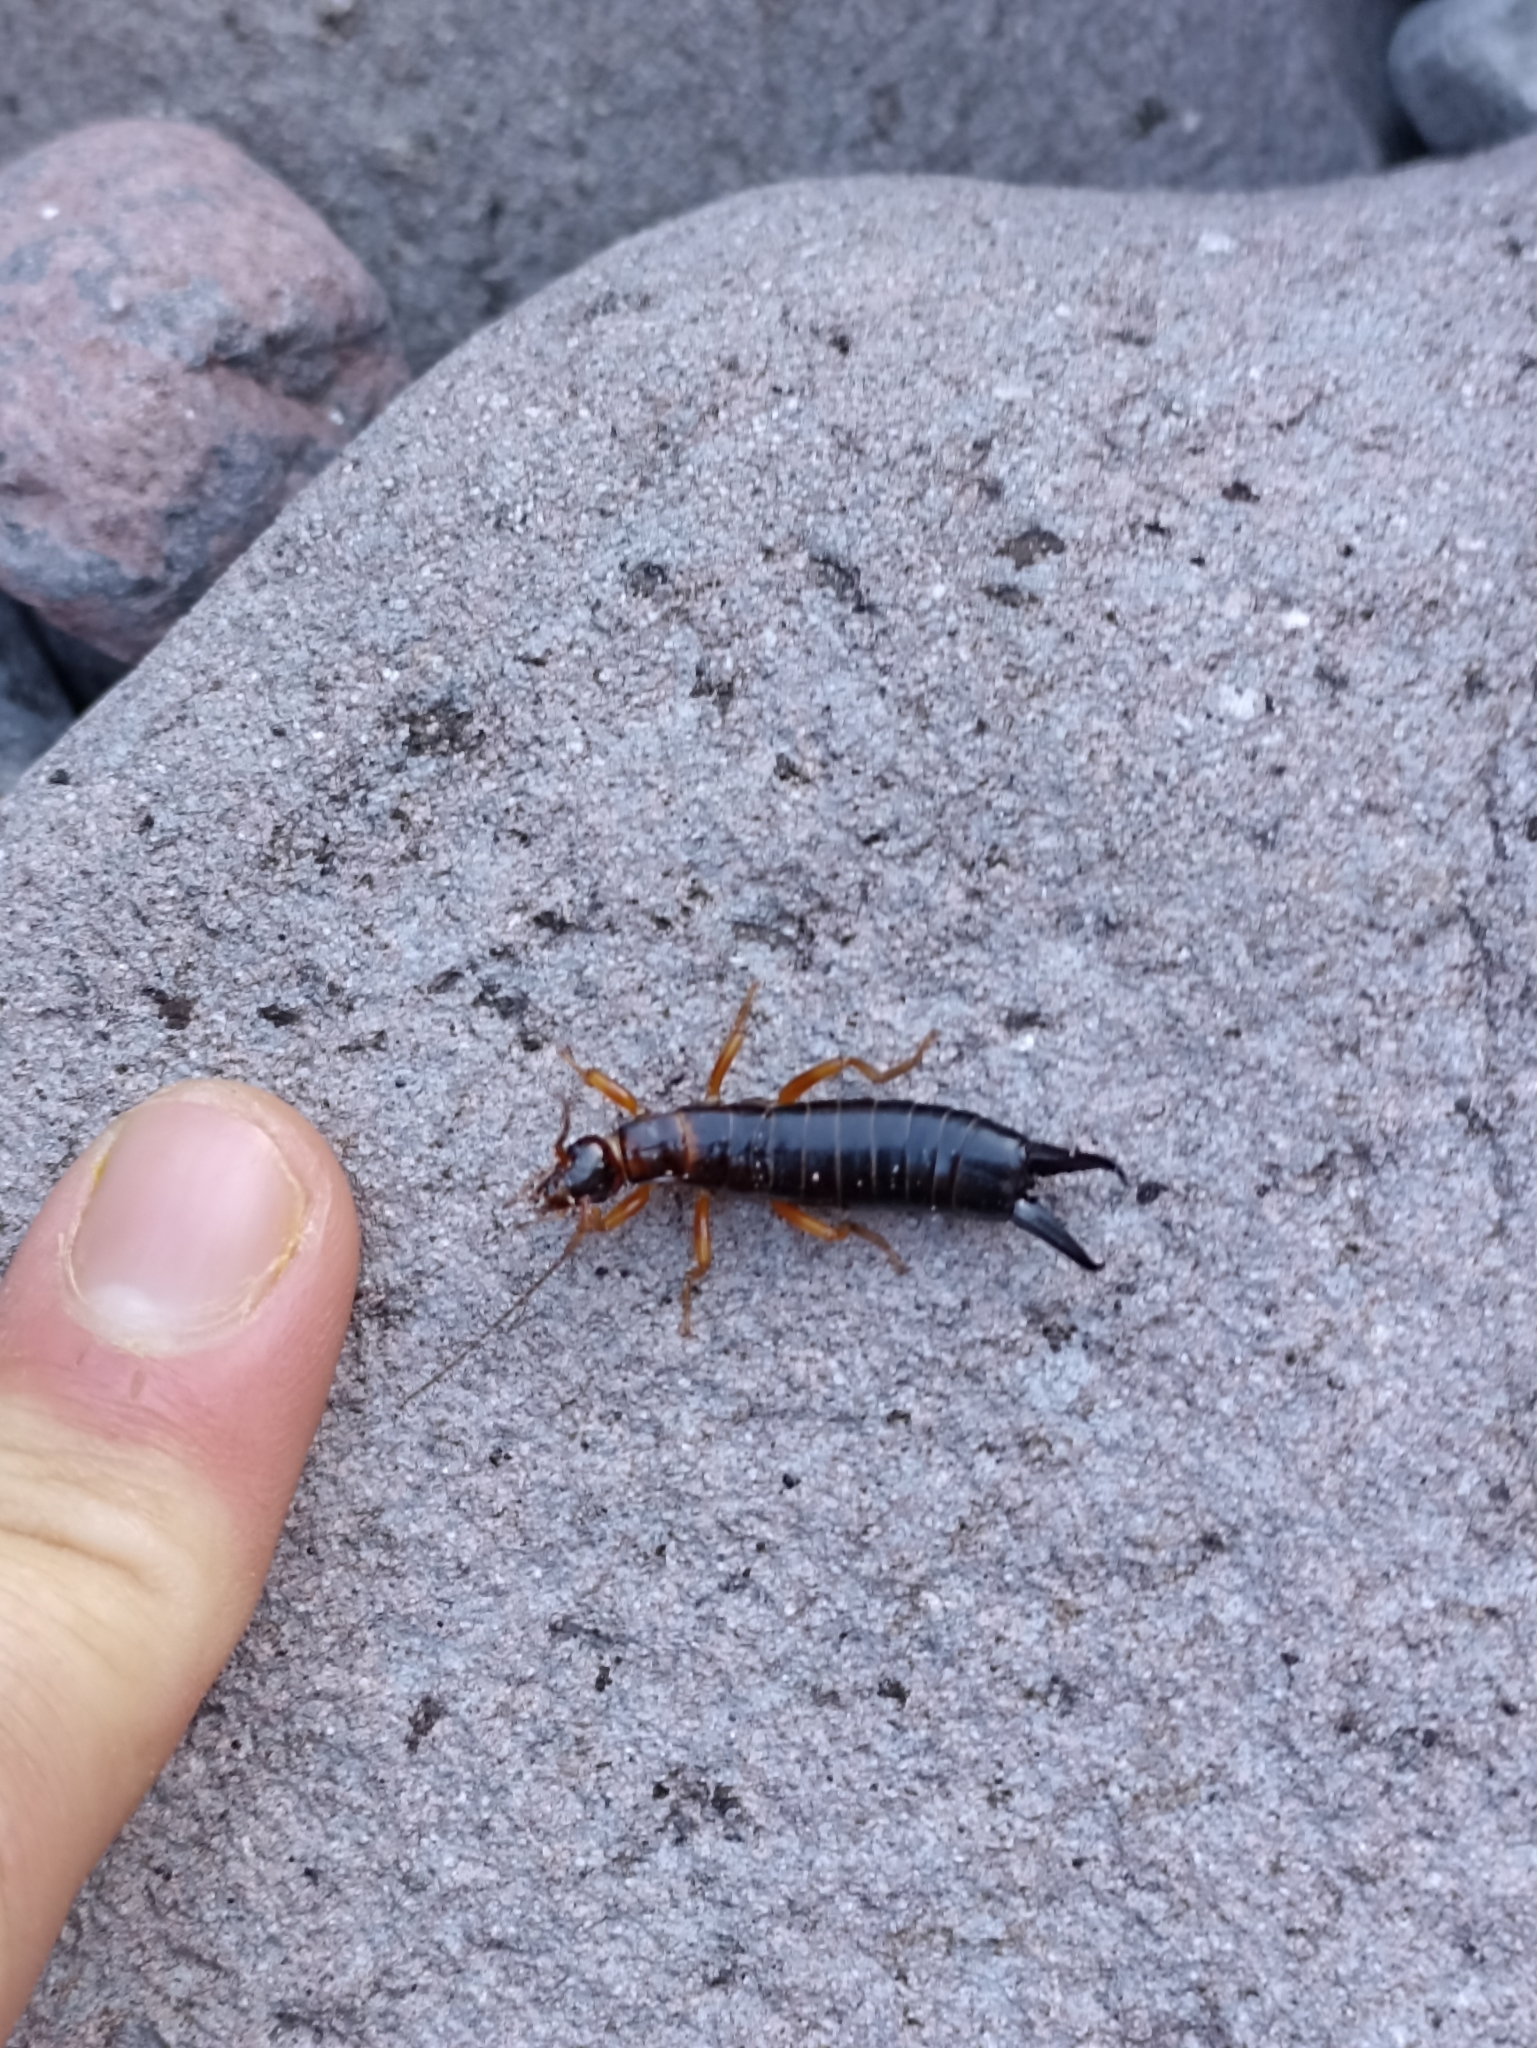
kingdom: Animalia
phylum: Arthropoda
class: Insecta
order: Dermaptera
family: Anisolabididae
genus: Anisolabis
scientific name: Anisolabis littorea
